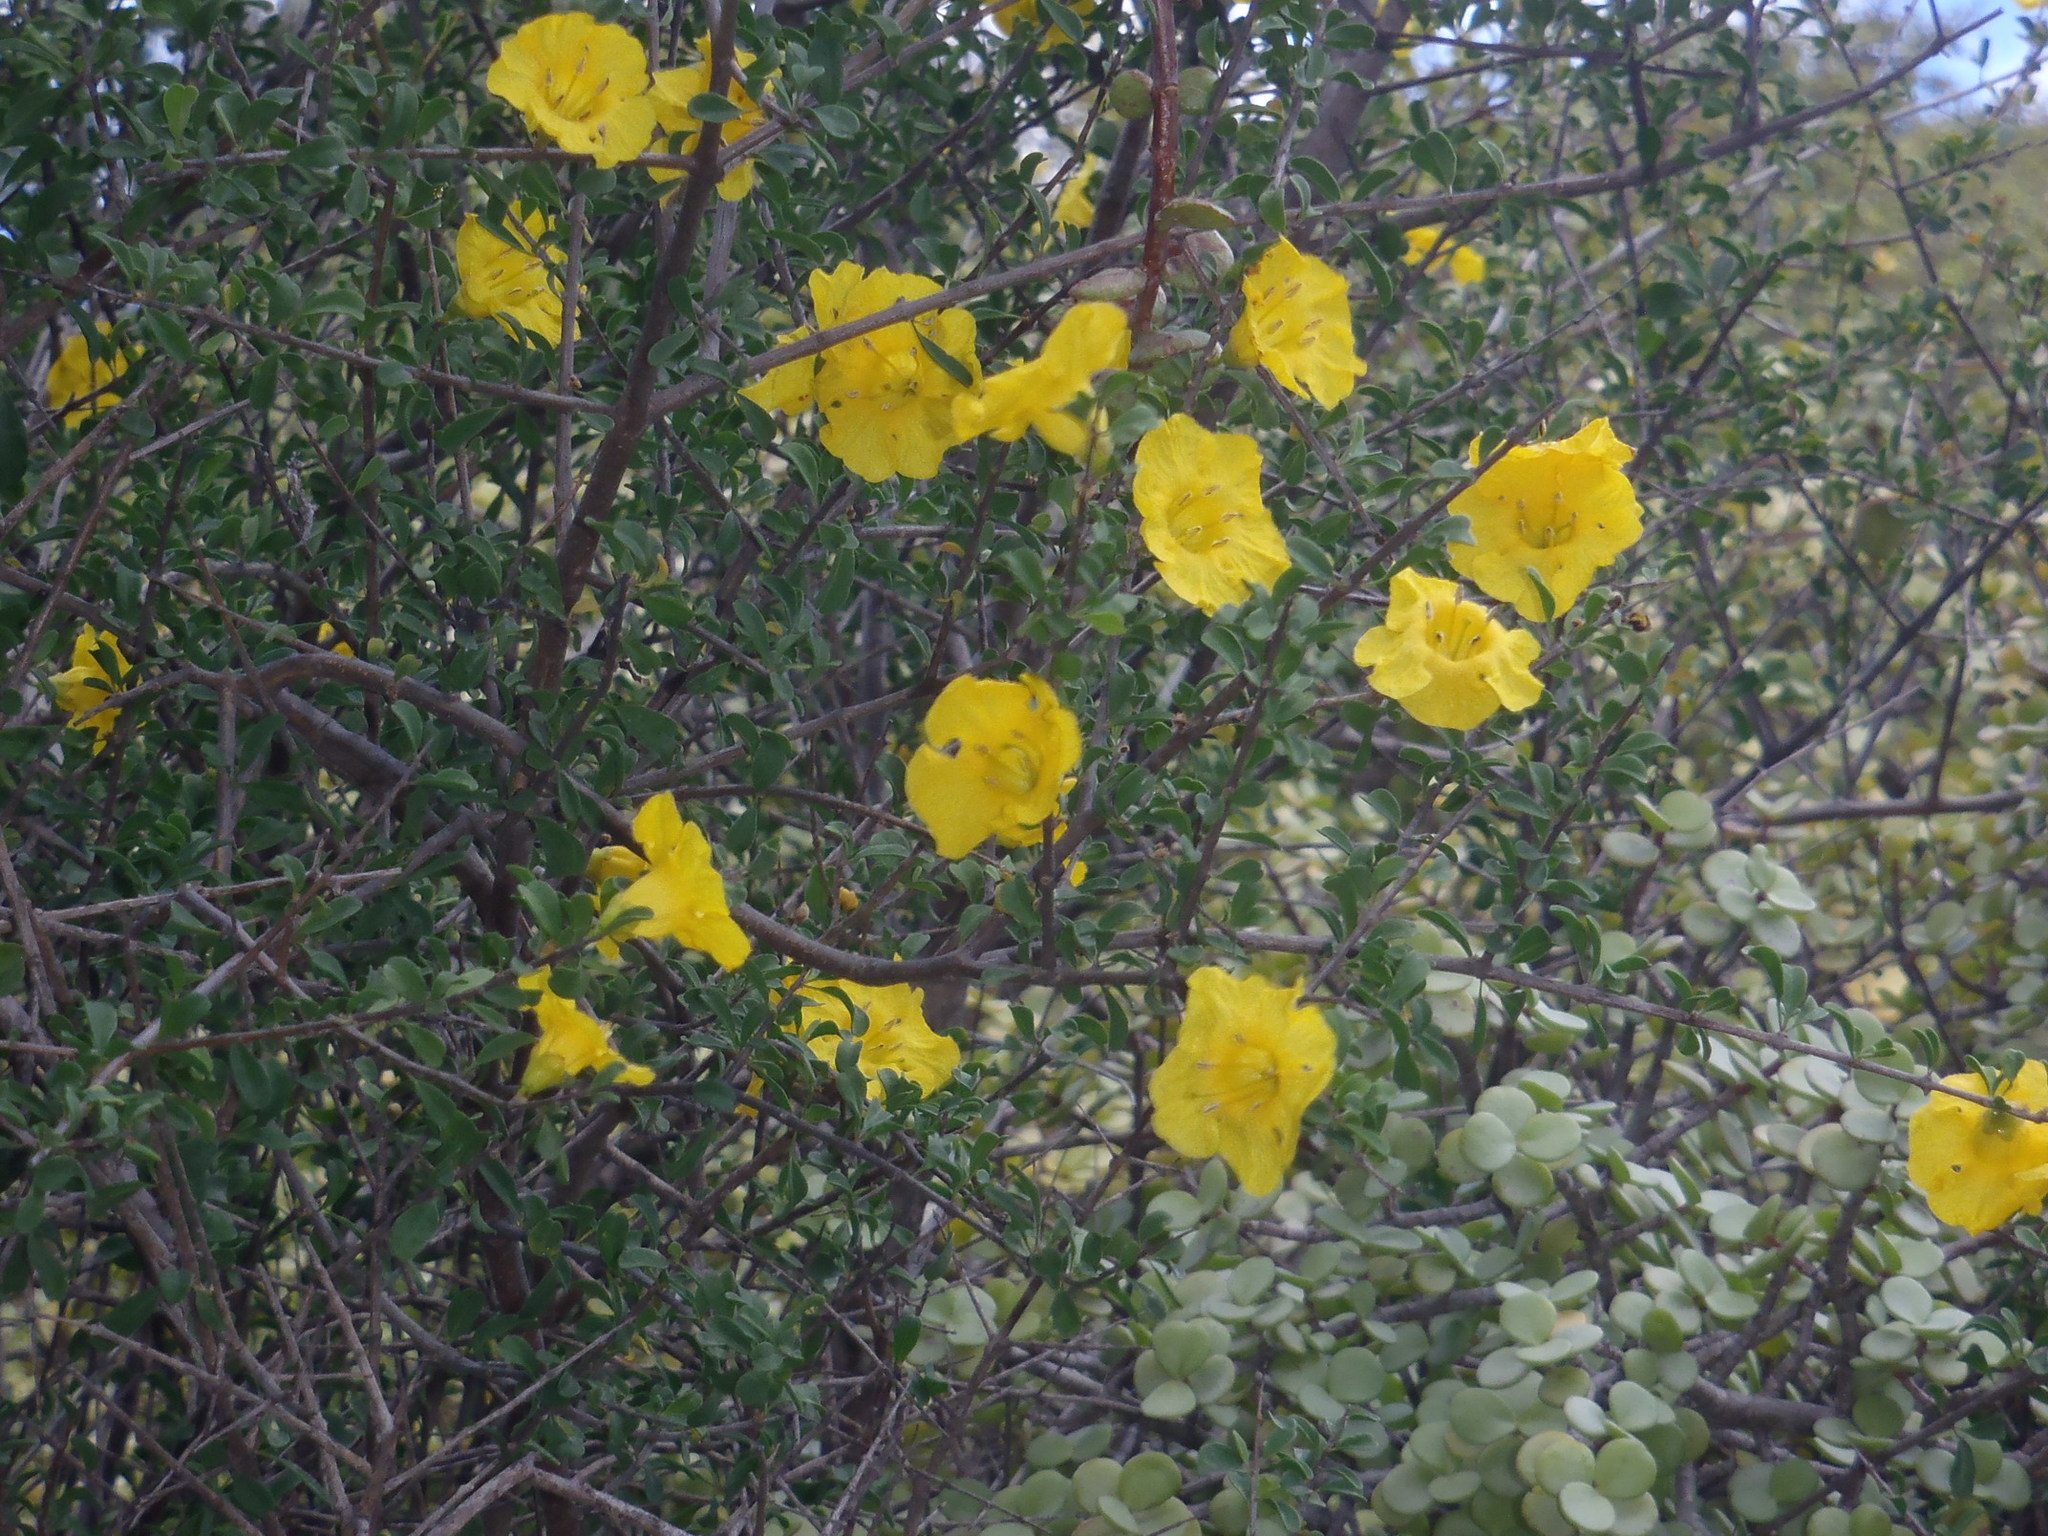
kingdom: Plantae
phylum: Tracheophyta
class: Magnoliopsida
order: Lamiales
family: Bignoniaceae
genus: Rhigozum
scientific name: Rhigozum obovatum
